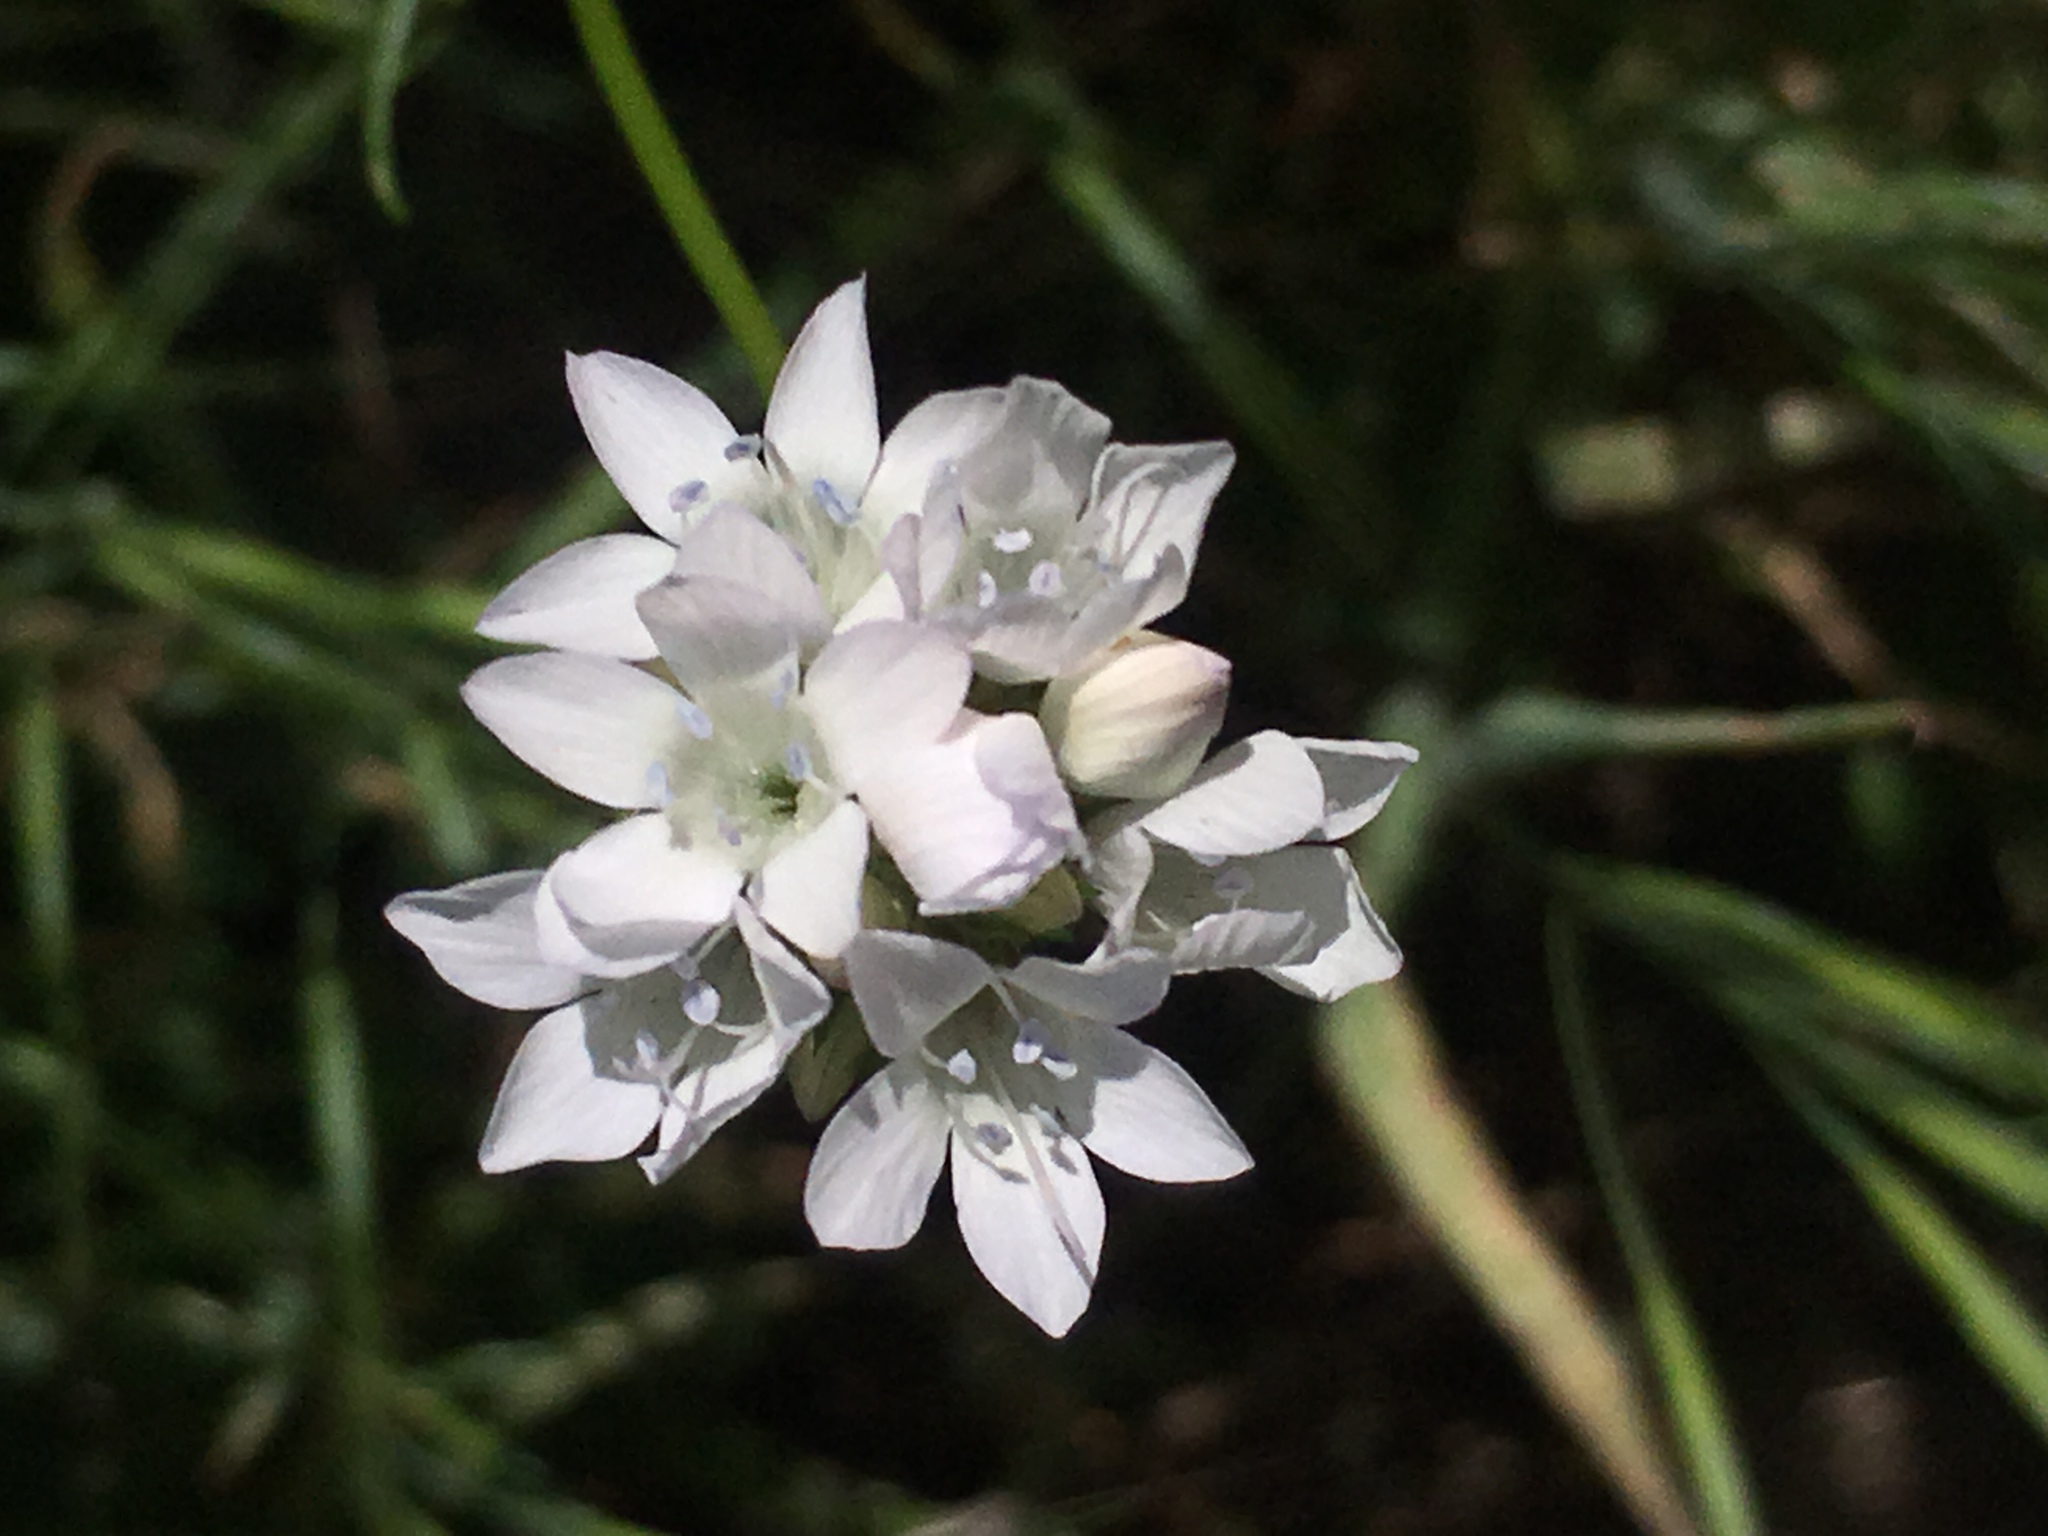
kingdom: Plantae
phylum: Tracheophyta
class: Magnoliopsida
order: Ericales
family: Polemoniaceae
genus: Gilia
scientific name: Gilia capitata
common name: Bluehead gilia
